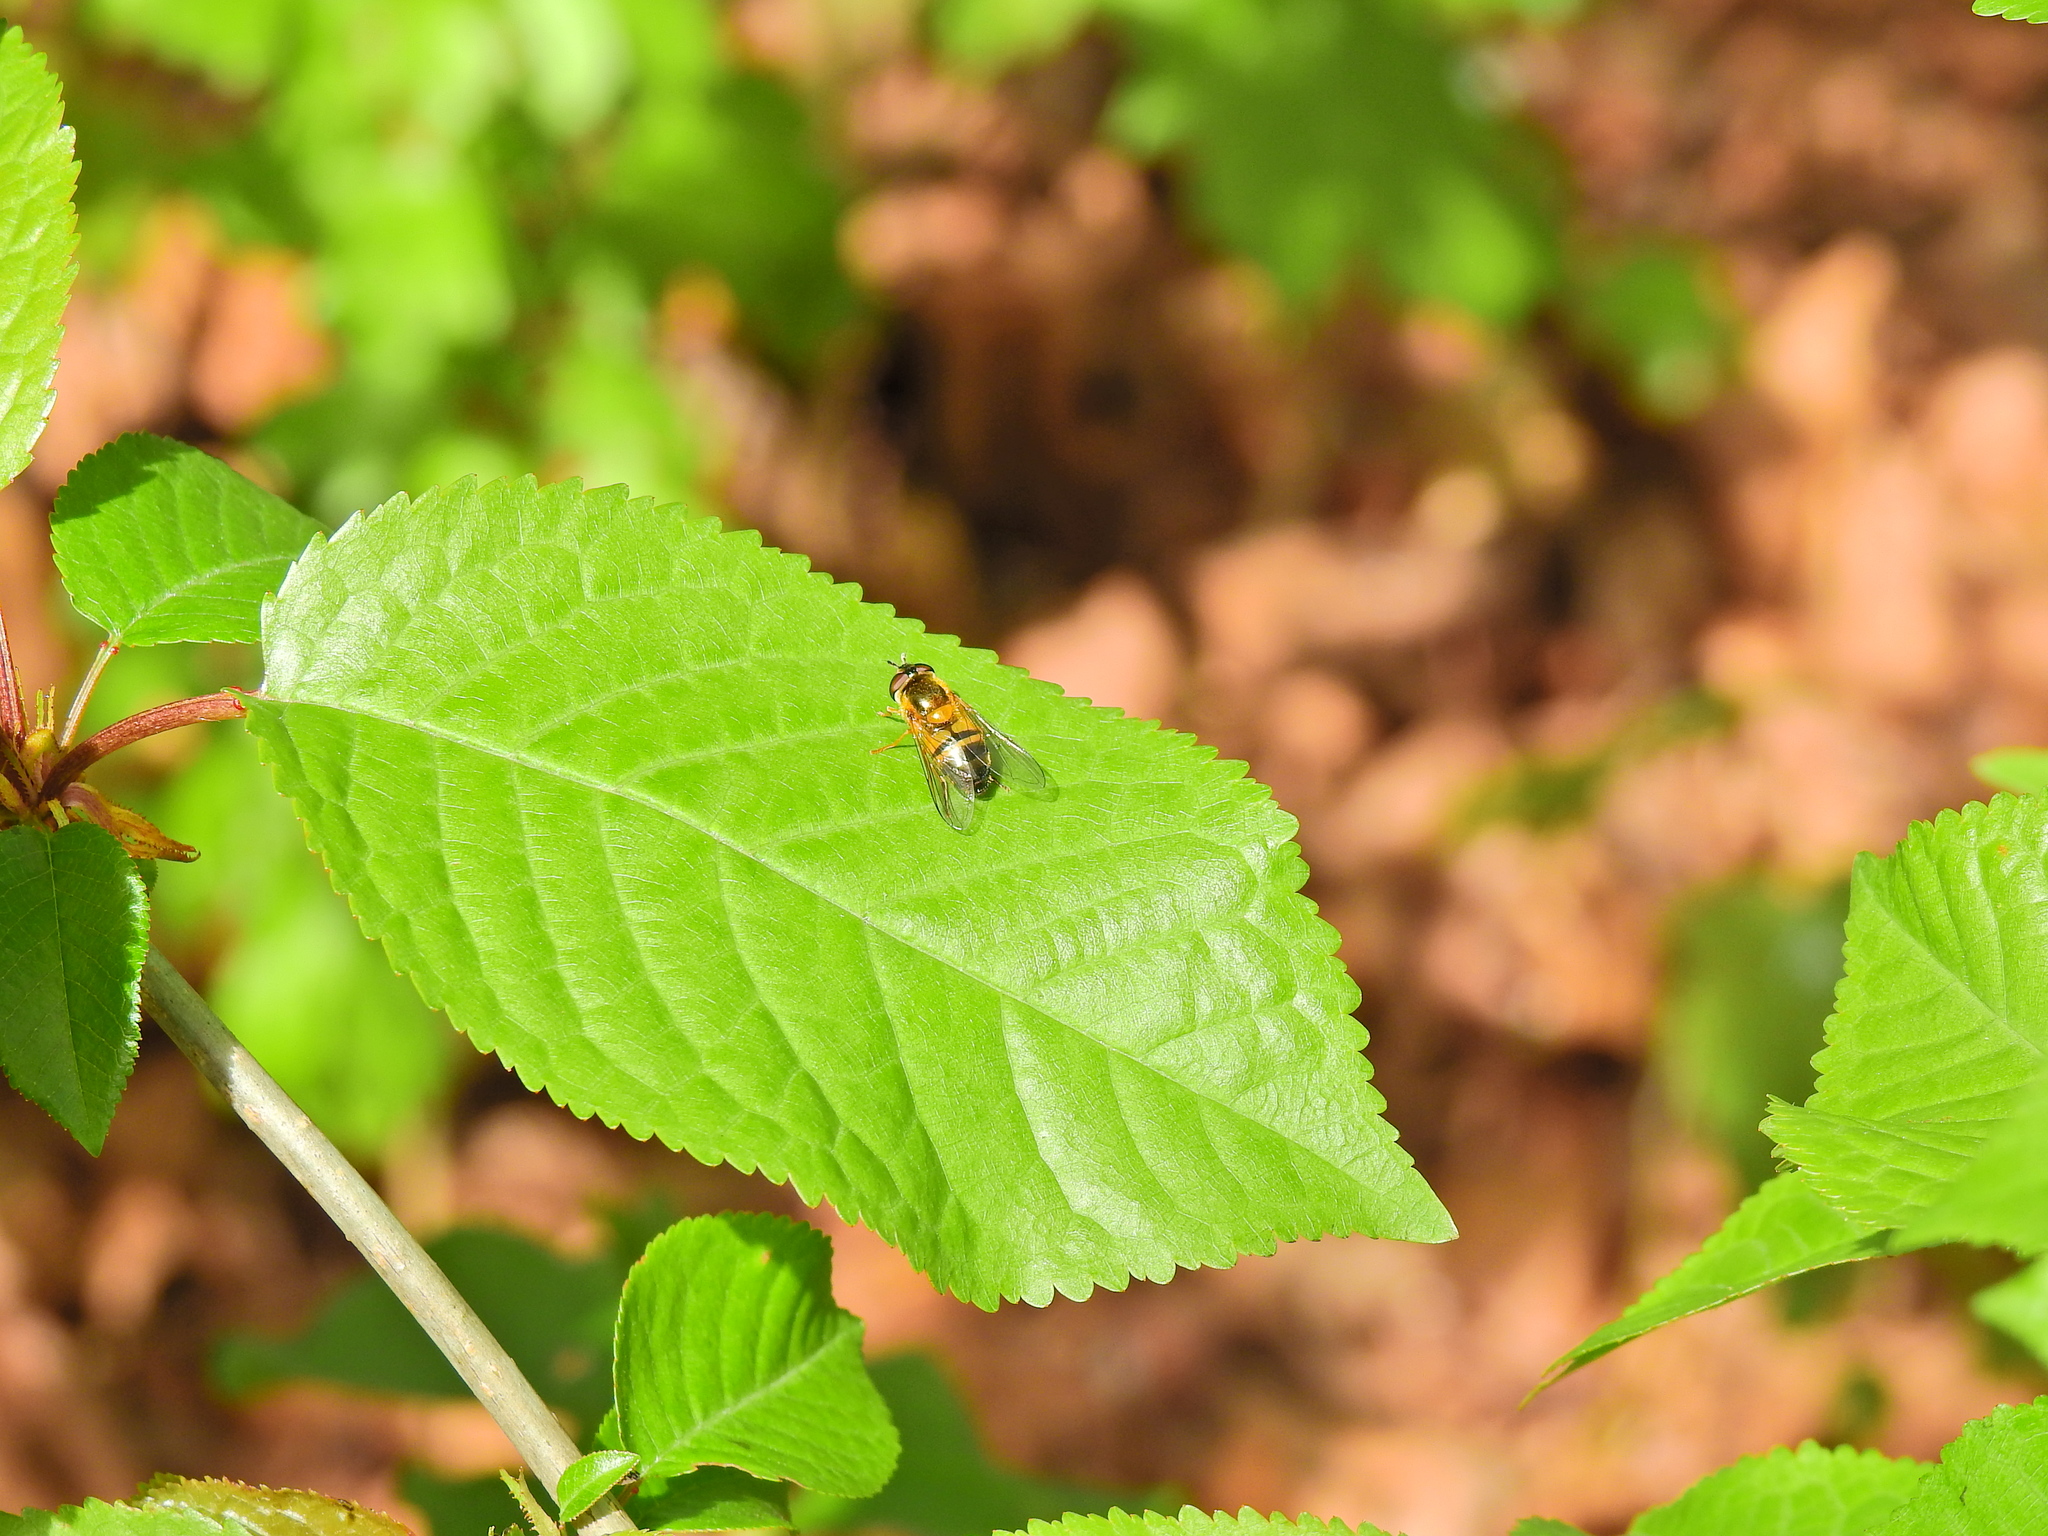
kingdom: Animalia
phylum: Arthropoda
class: Insecta
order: Diptera
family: Syrphidae
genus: Epistrophe
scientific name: Epistrophe eligans
